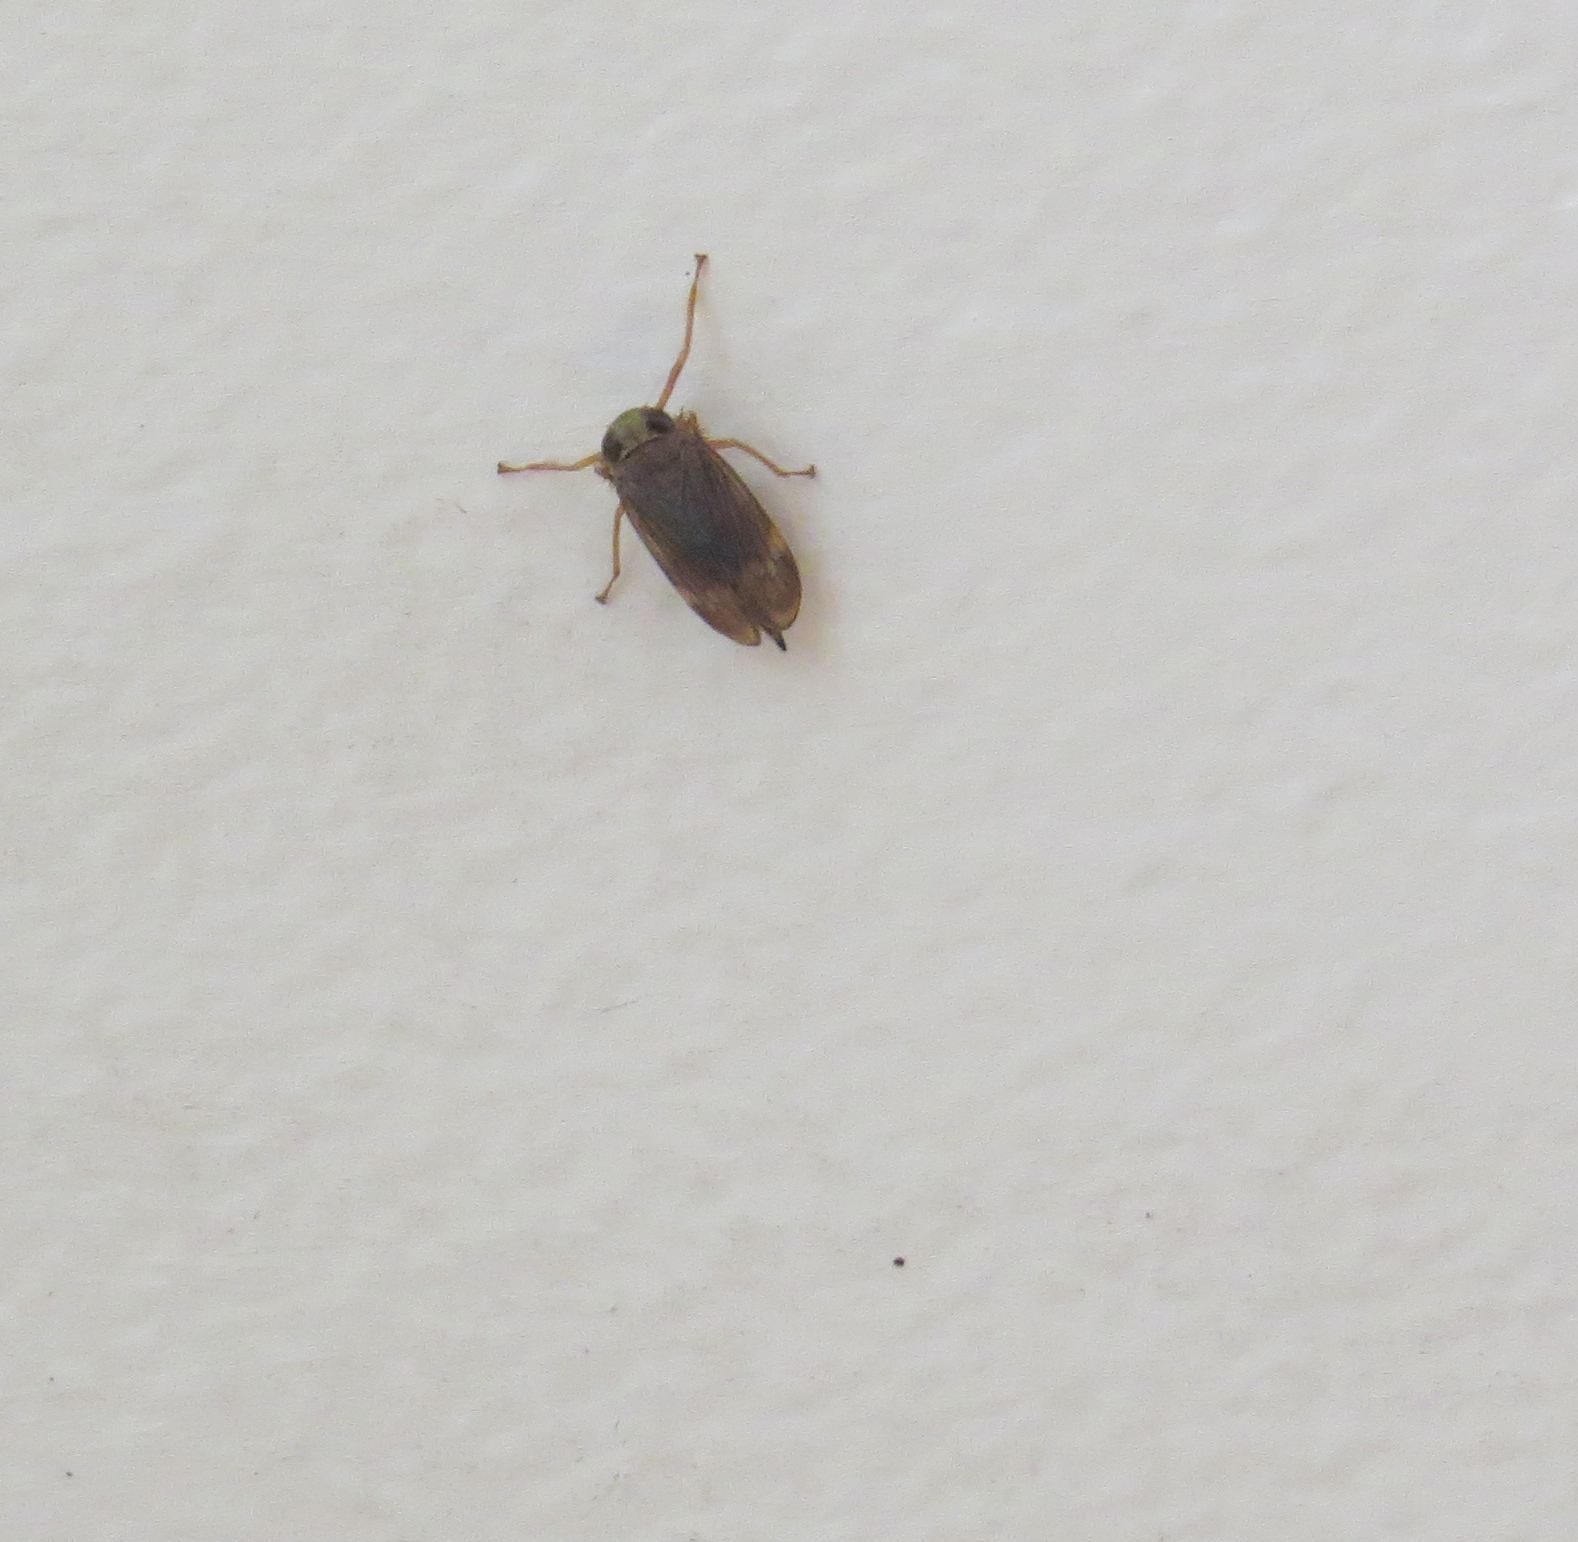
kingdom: Animalia
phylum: Arthropoda
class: Insecta
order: Hemiptera
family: Cicadellidae
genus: Jikradia
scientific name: Jikradia olitoria
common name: Coppery leafhopper
